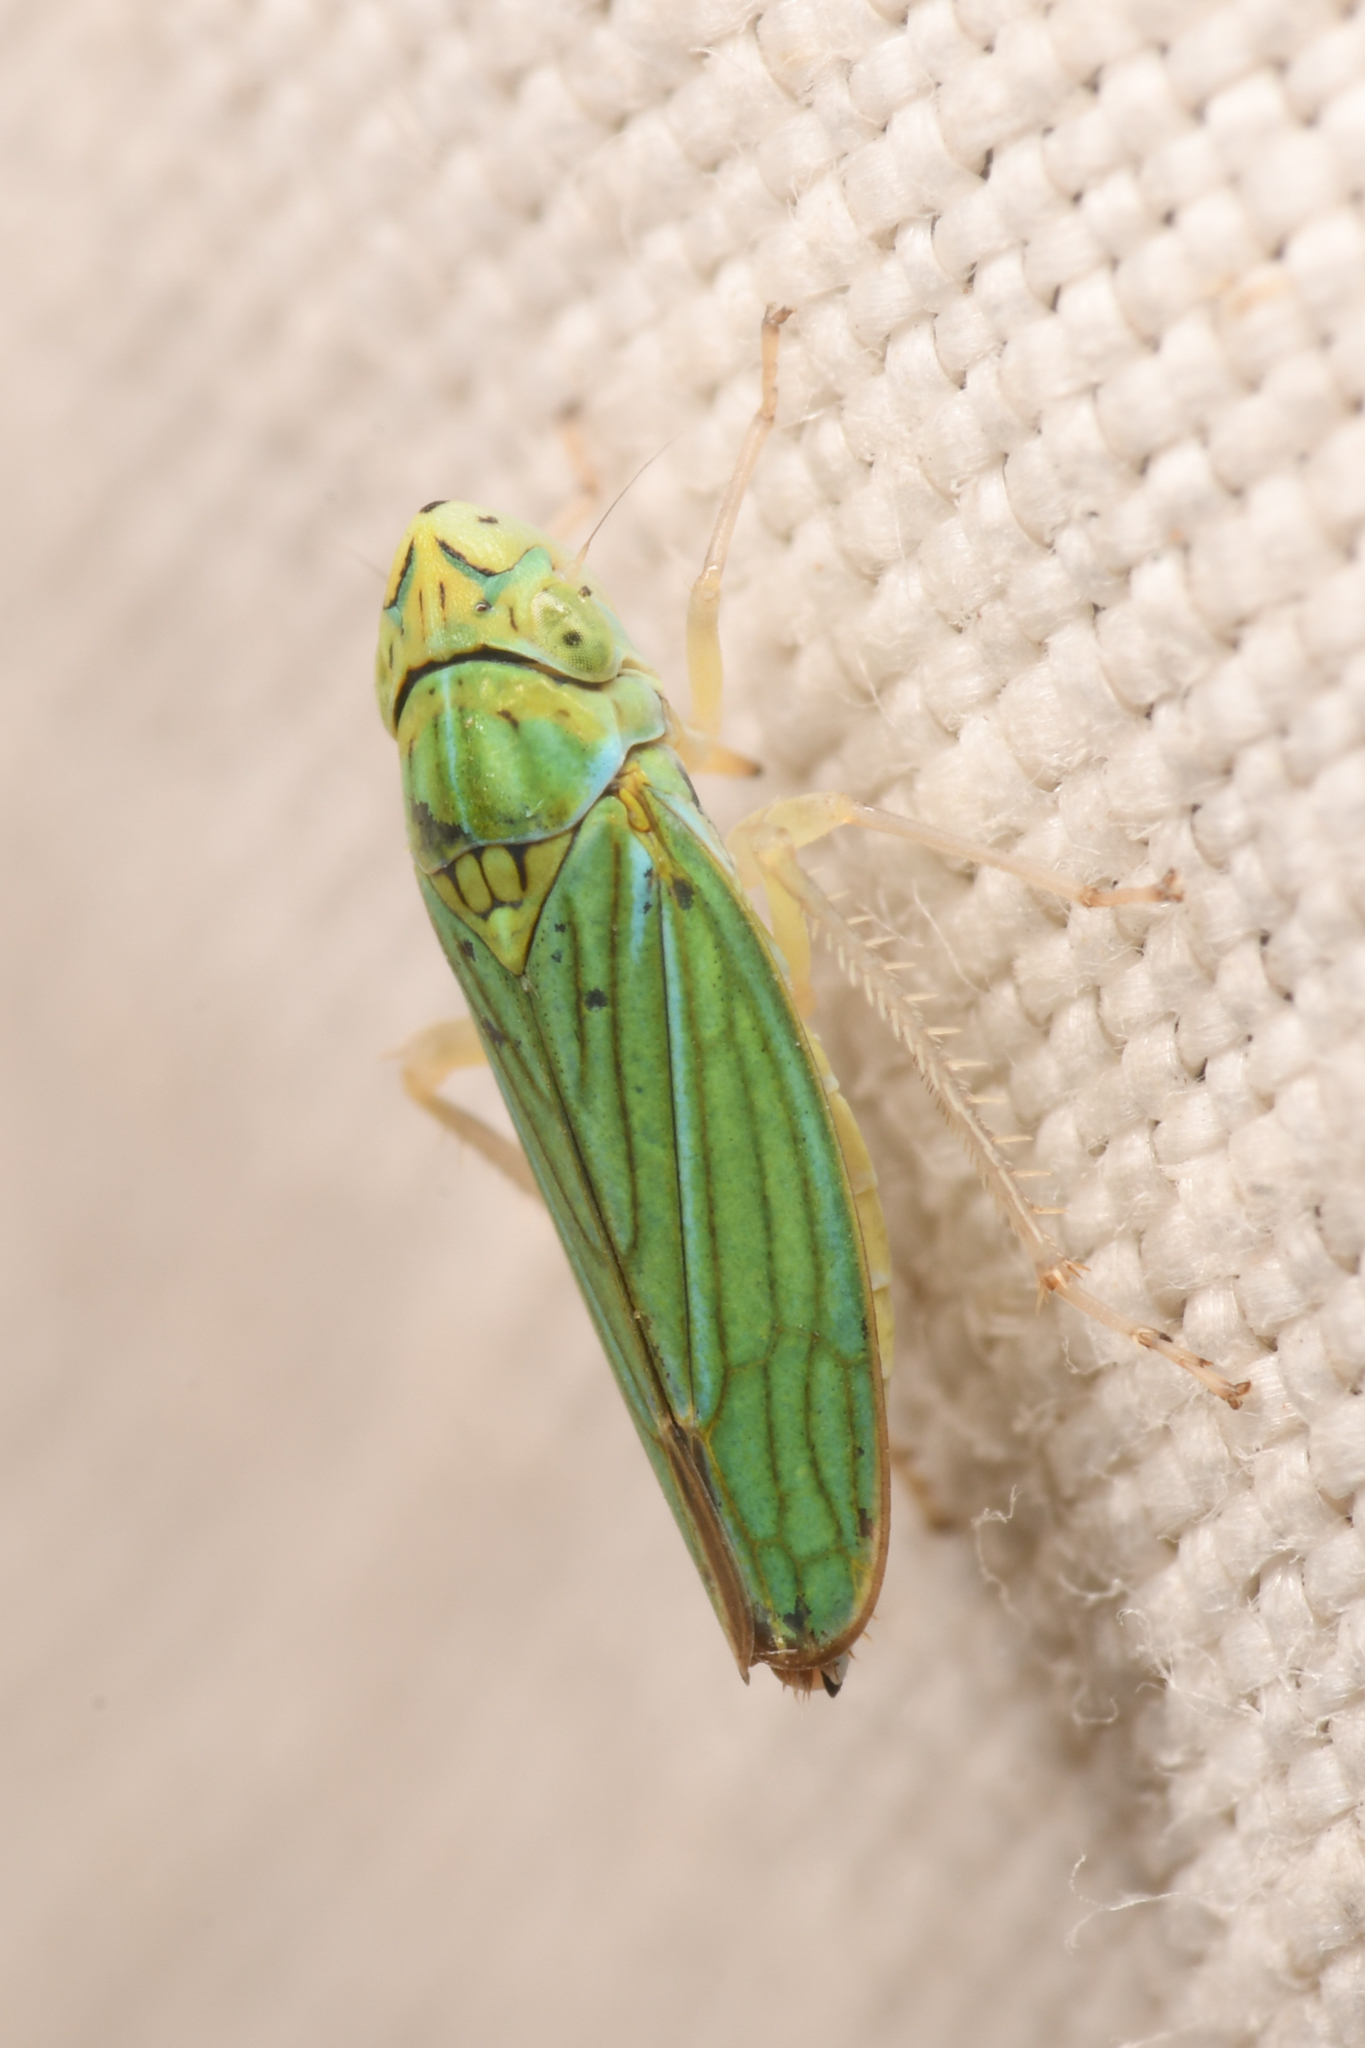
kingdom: Animalia
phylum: Arthropoda
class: Insecta
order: Hemiptera
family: Cicadellidae
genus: Graphocephala
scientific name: Graphocephala atropunctata
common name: Blue-green sharpshooter
